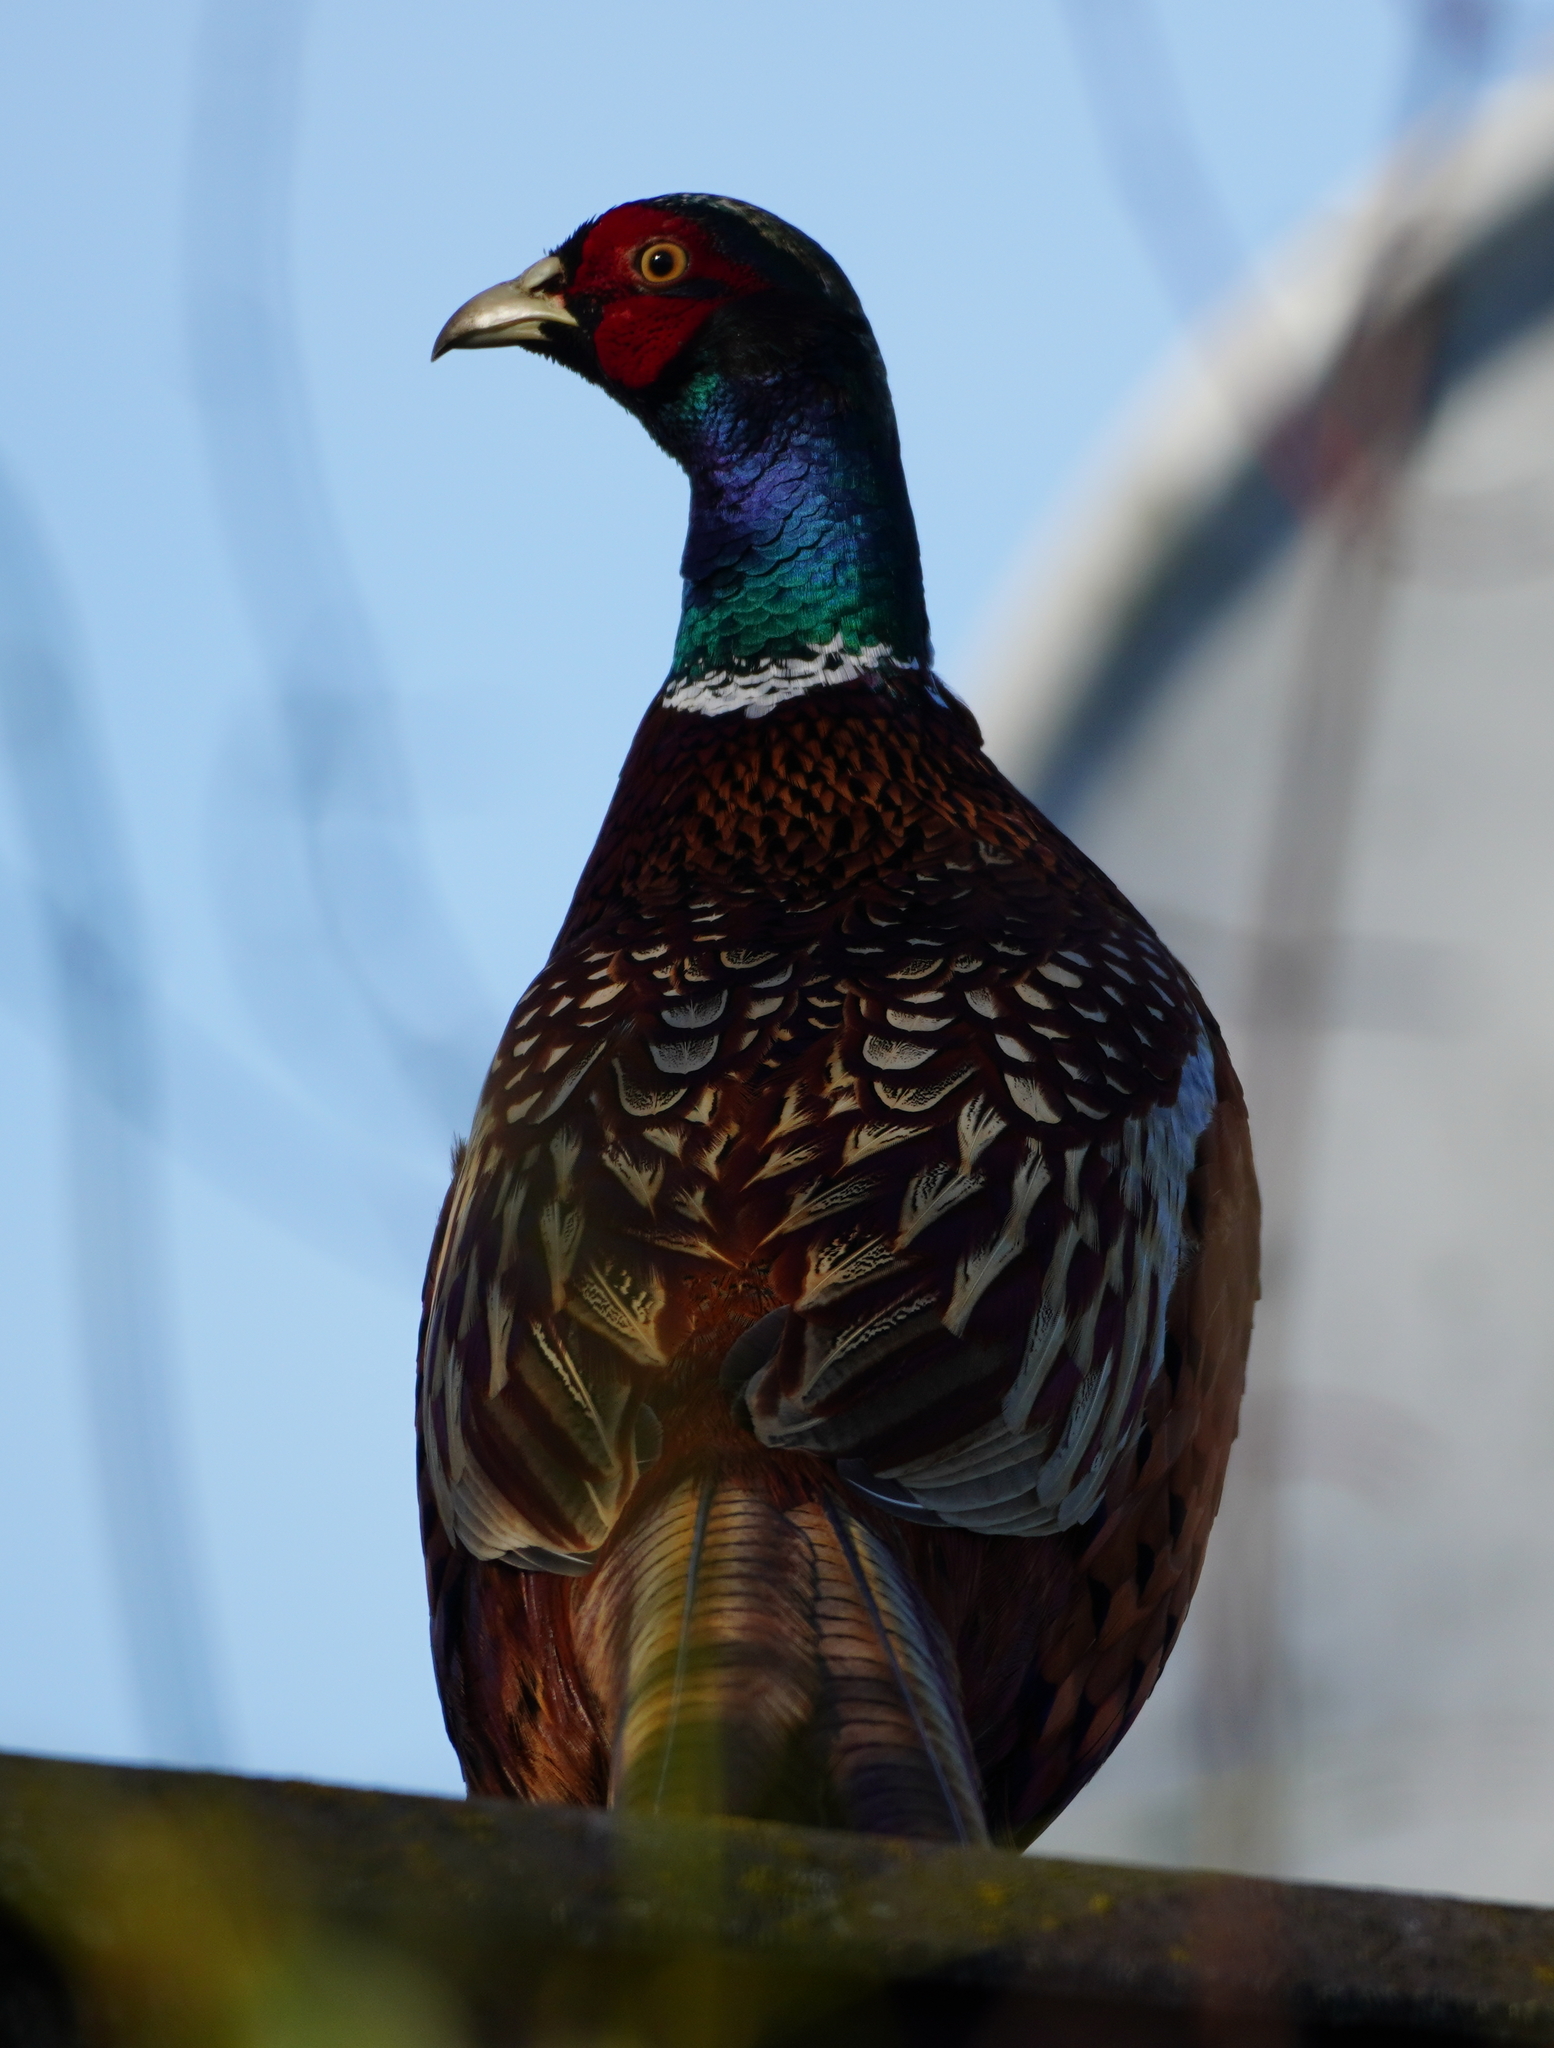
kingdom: Animalia
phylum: Chordata
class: Aves
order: Galliformes
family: Phasianidae
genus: Phasianus
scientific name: Phasianus colchicus
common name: Common pheasant
